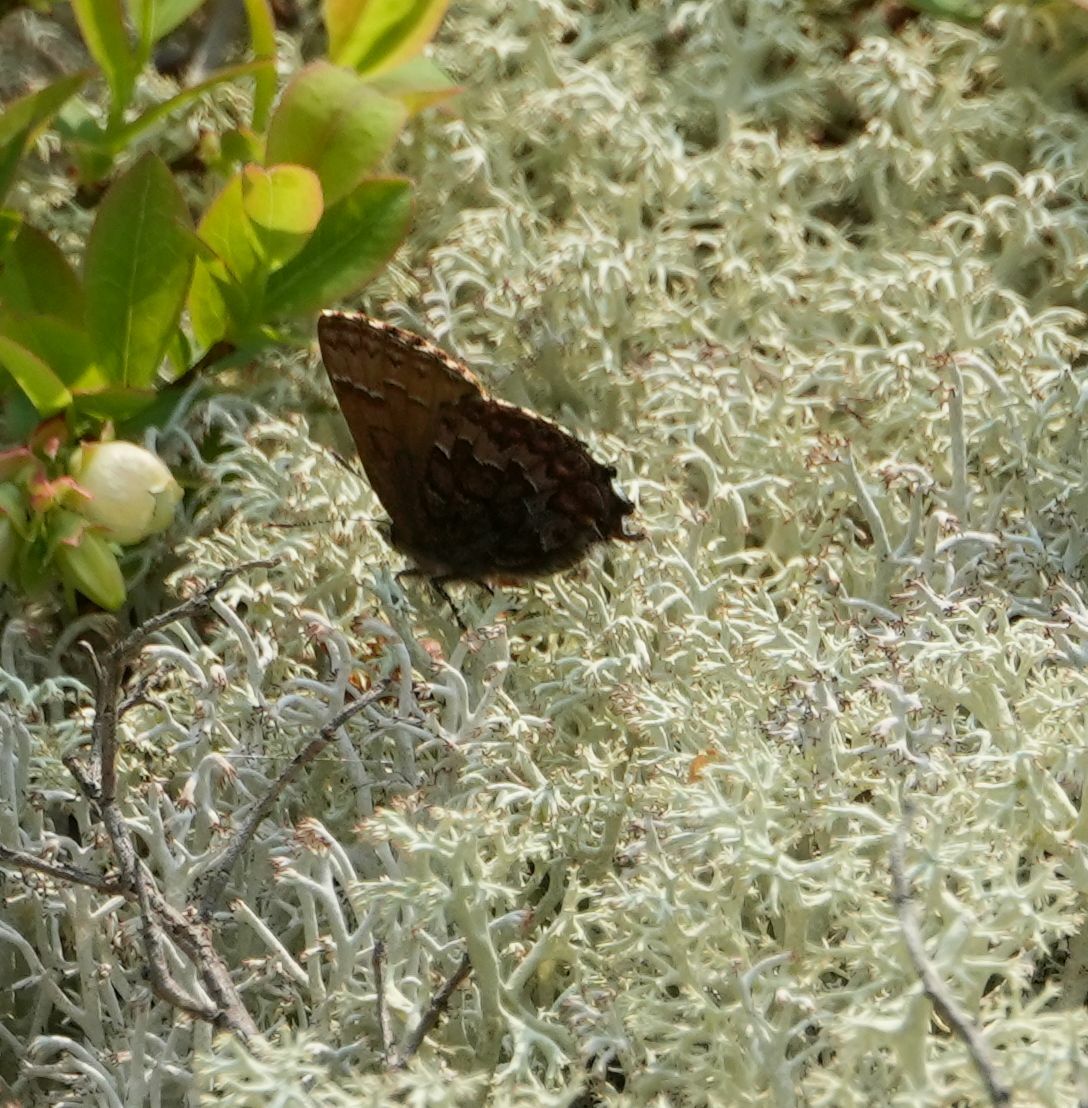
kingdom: Animalia
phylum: Arthropoda
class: Insecta
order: Lepidoptera
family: Lycaenidae
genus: Incisalia
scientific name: Incisalia niphon
